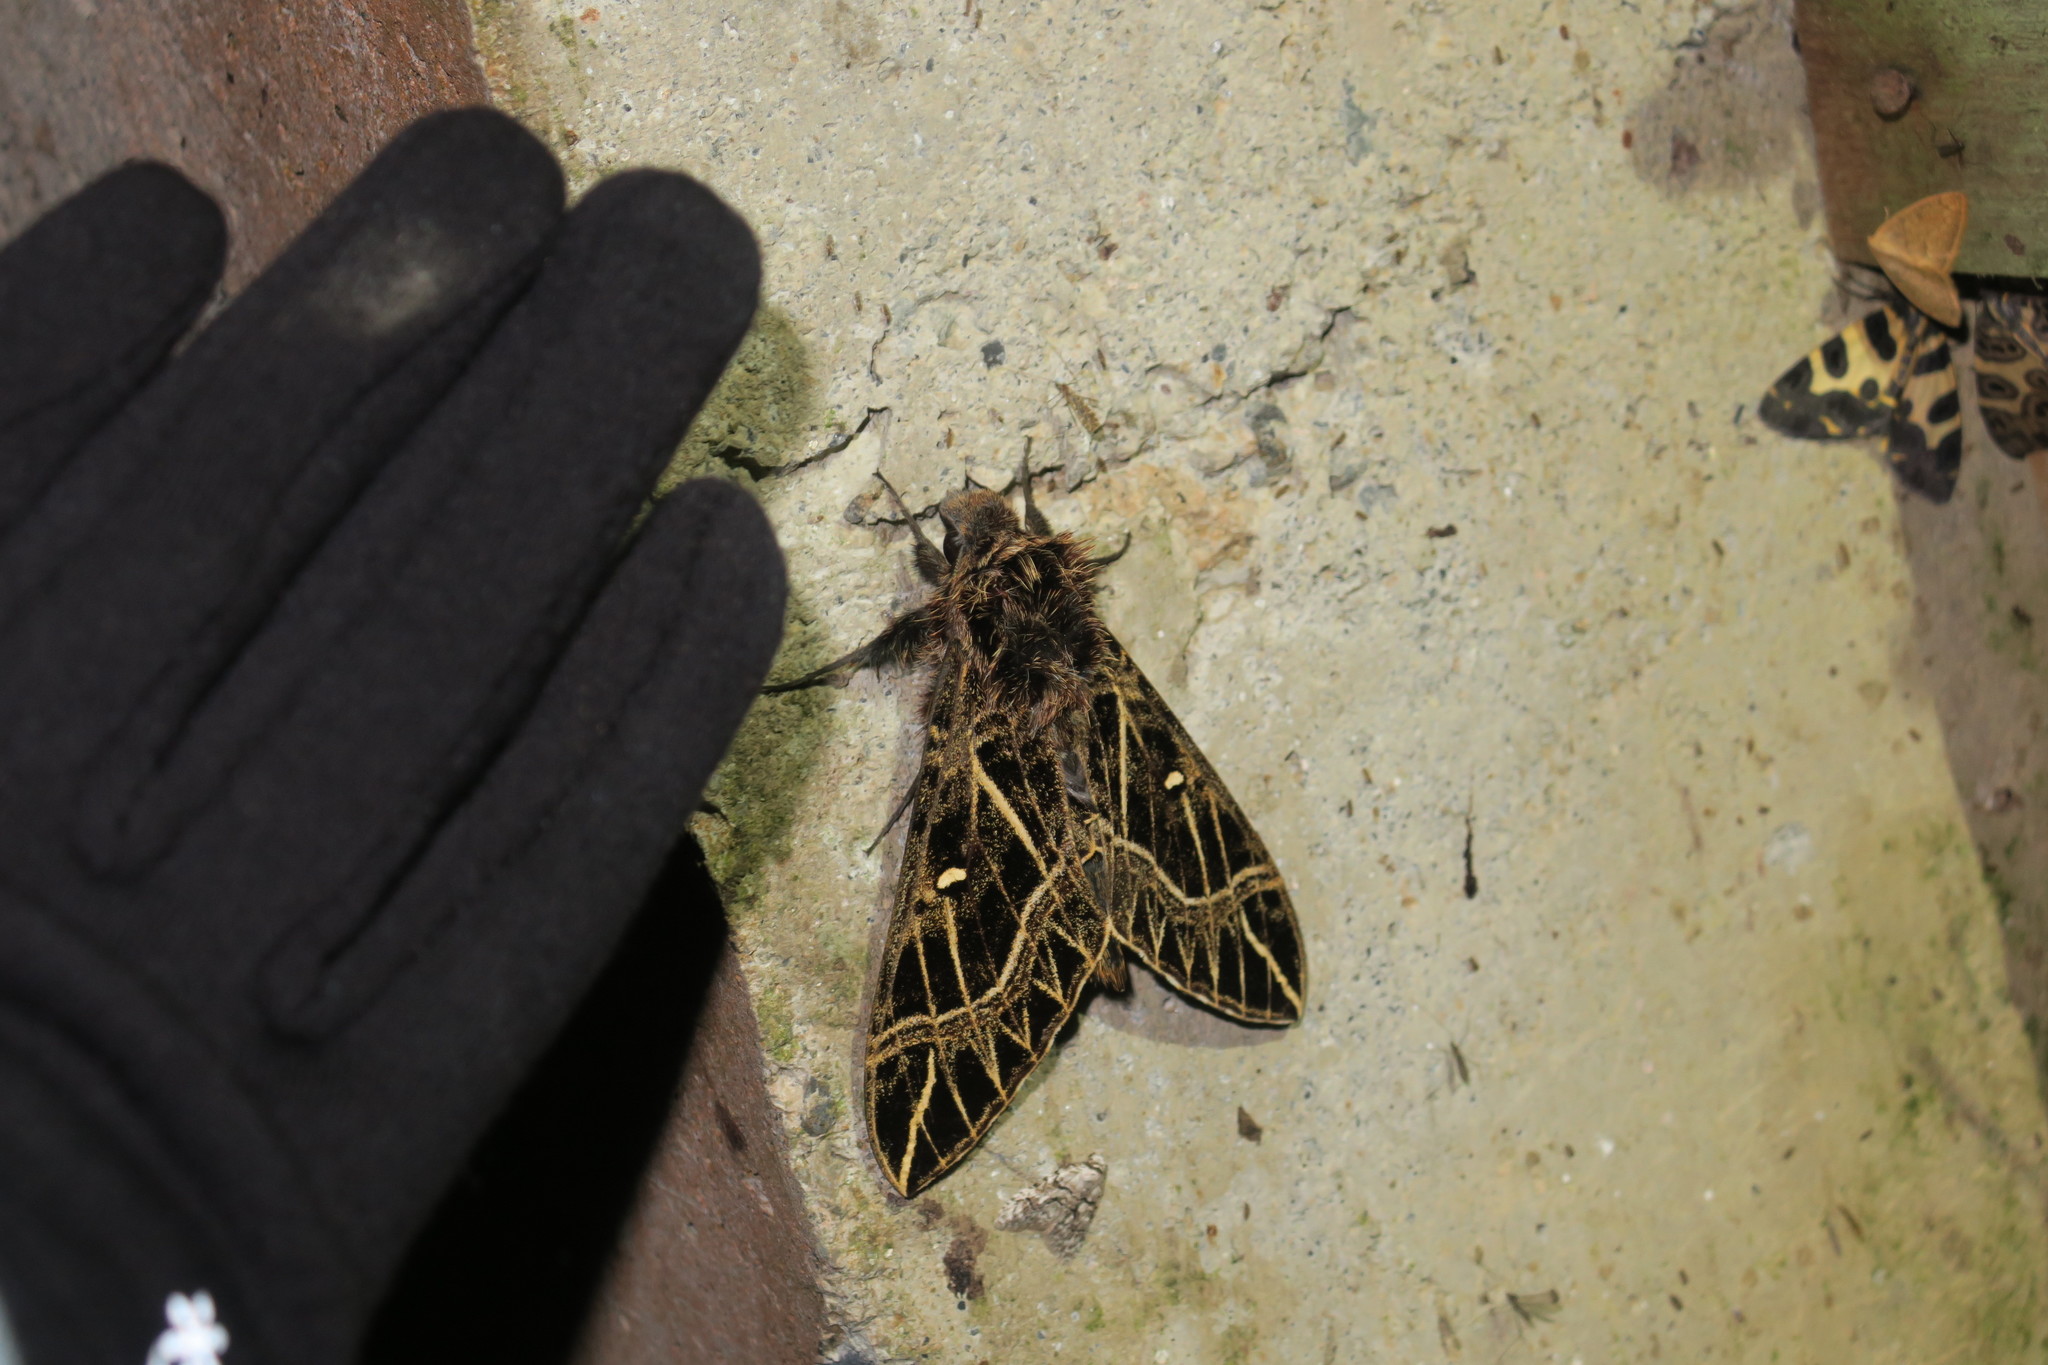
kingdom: Animalia
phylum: Arthropoda
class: Insecta
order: Lepidoptera
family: Sphingidae
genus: Euryglottis
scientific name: Euryglottis aper
